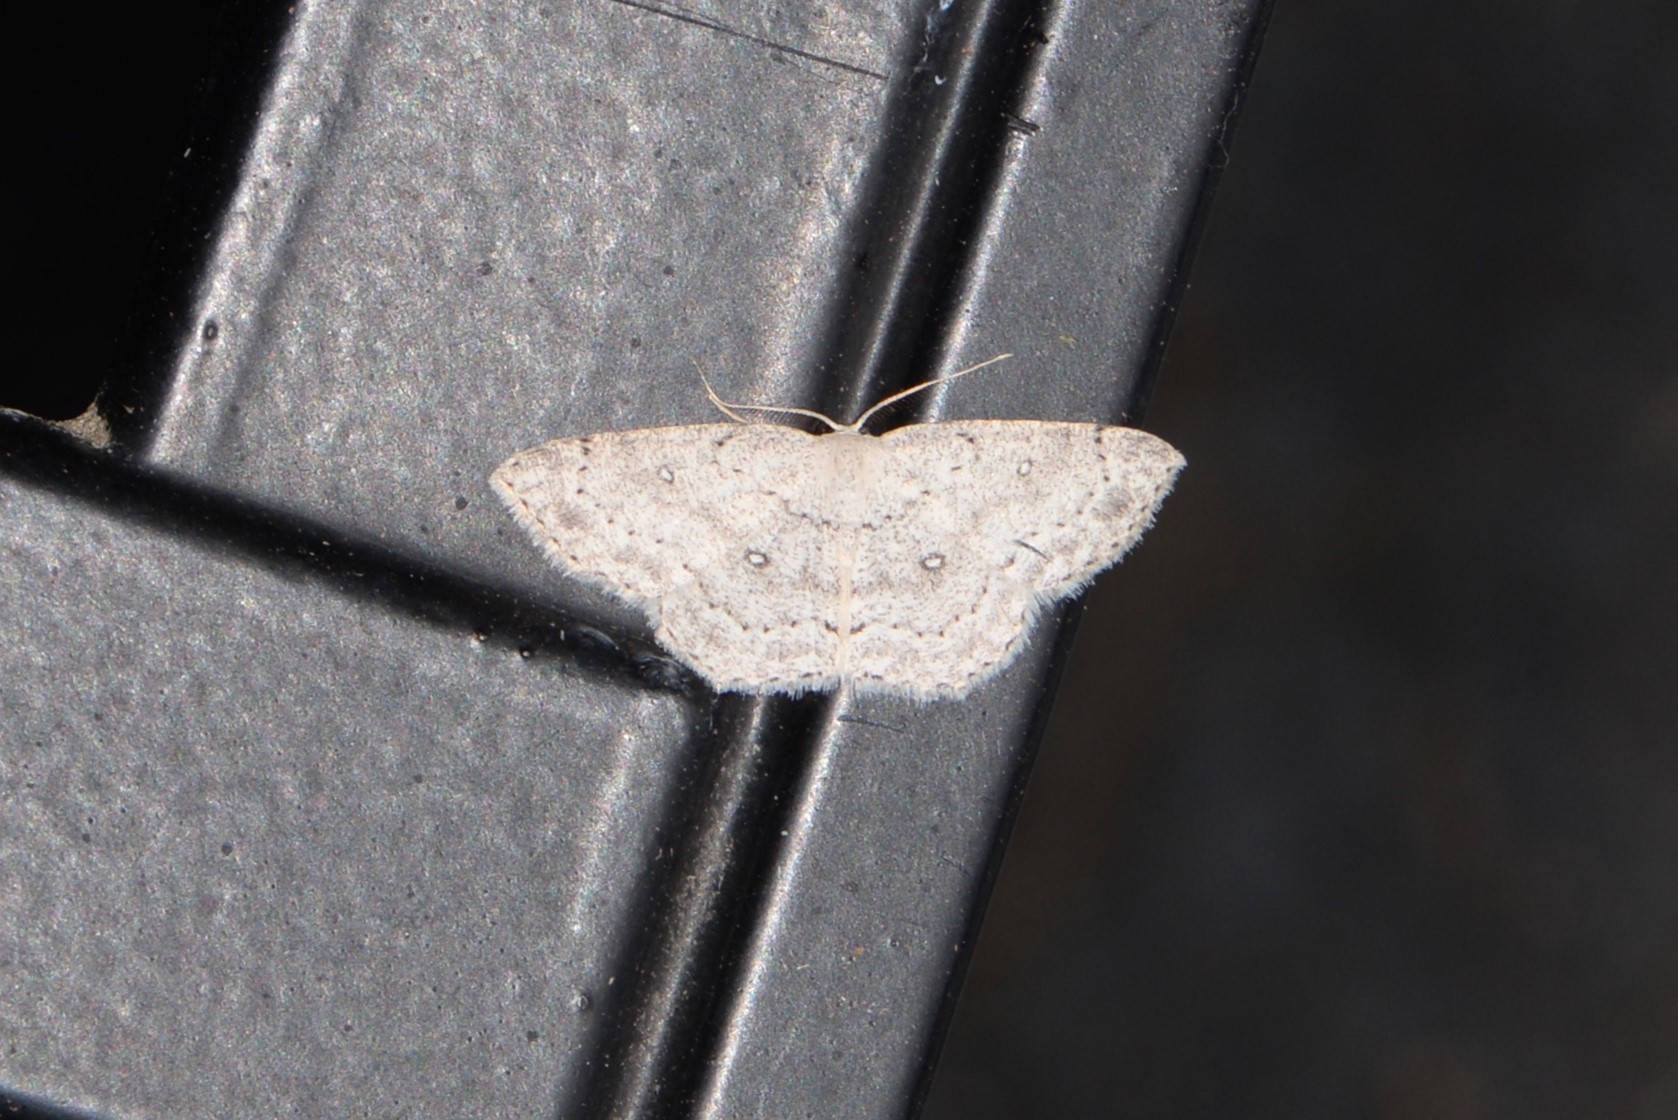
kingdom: Animalia
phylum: Arthropoda
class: Insecta
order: Lepidoptera
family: Geometridae
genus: Cyclophora
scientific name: Cyclophora pendulinaria
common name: Sweet fern geometer
